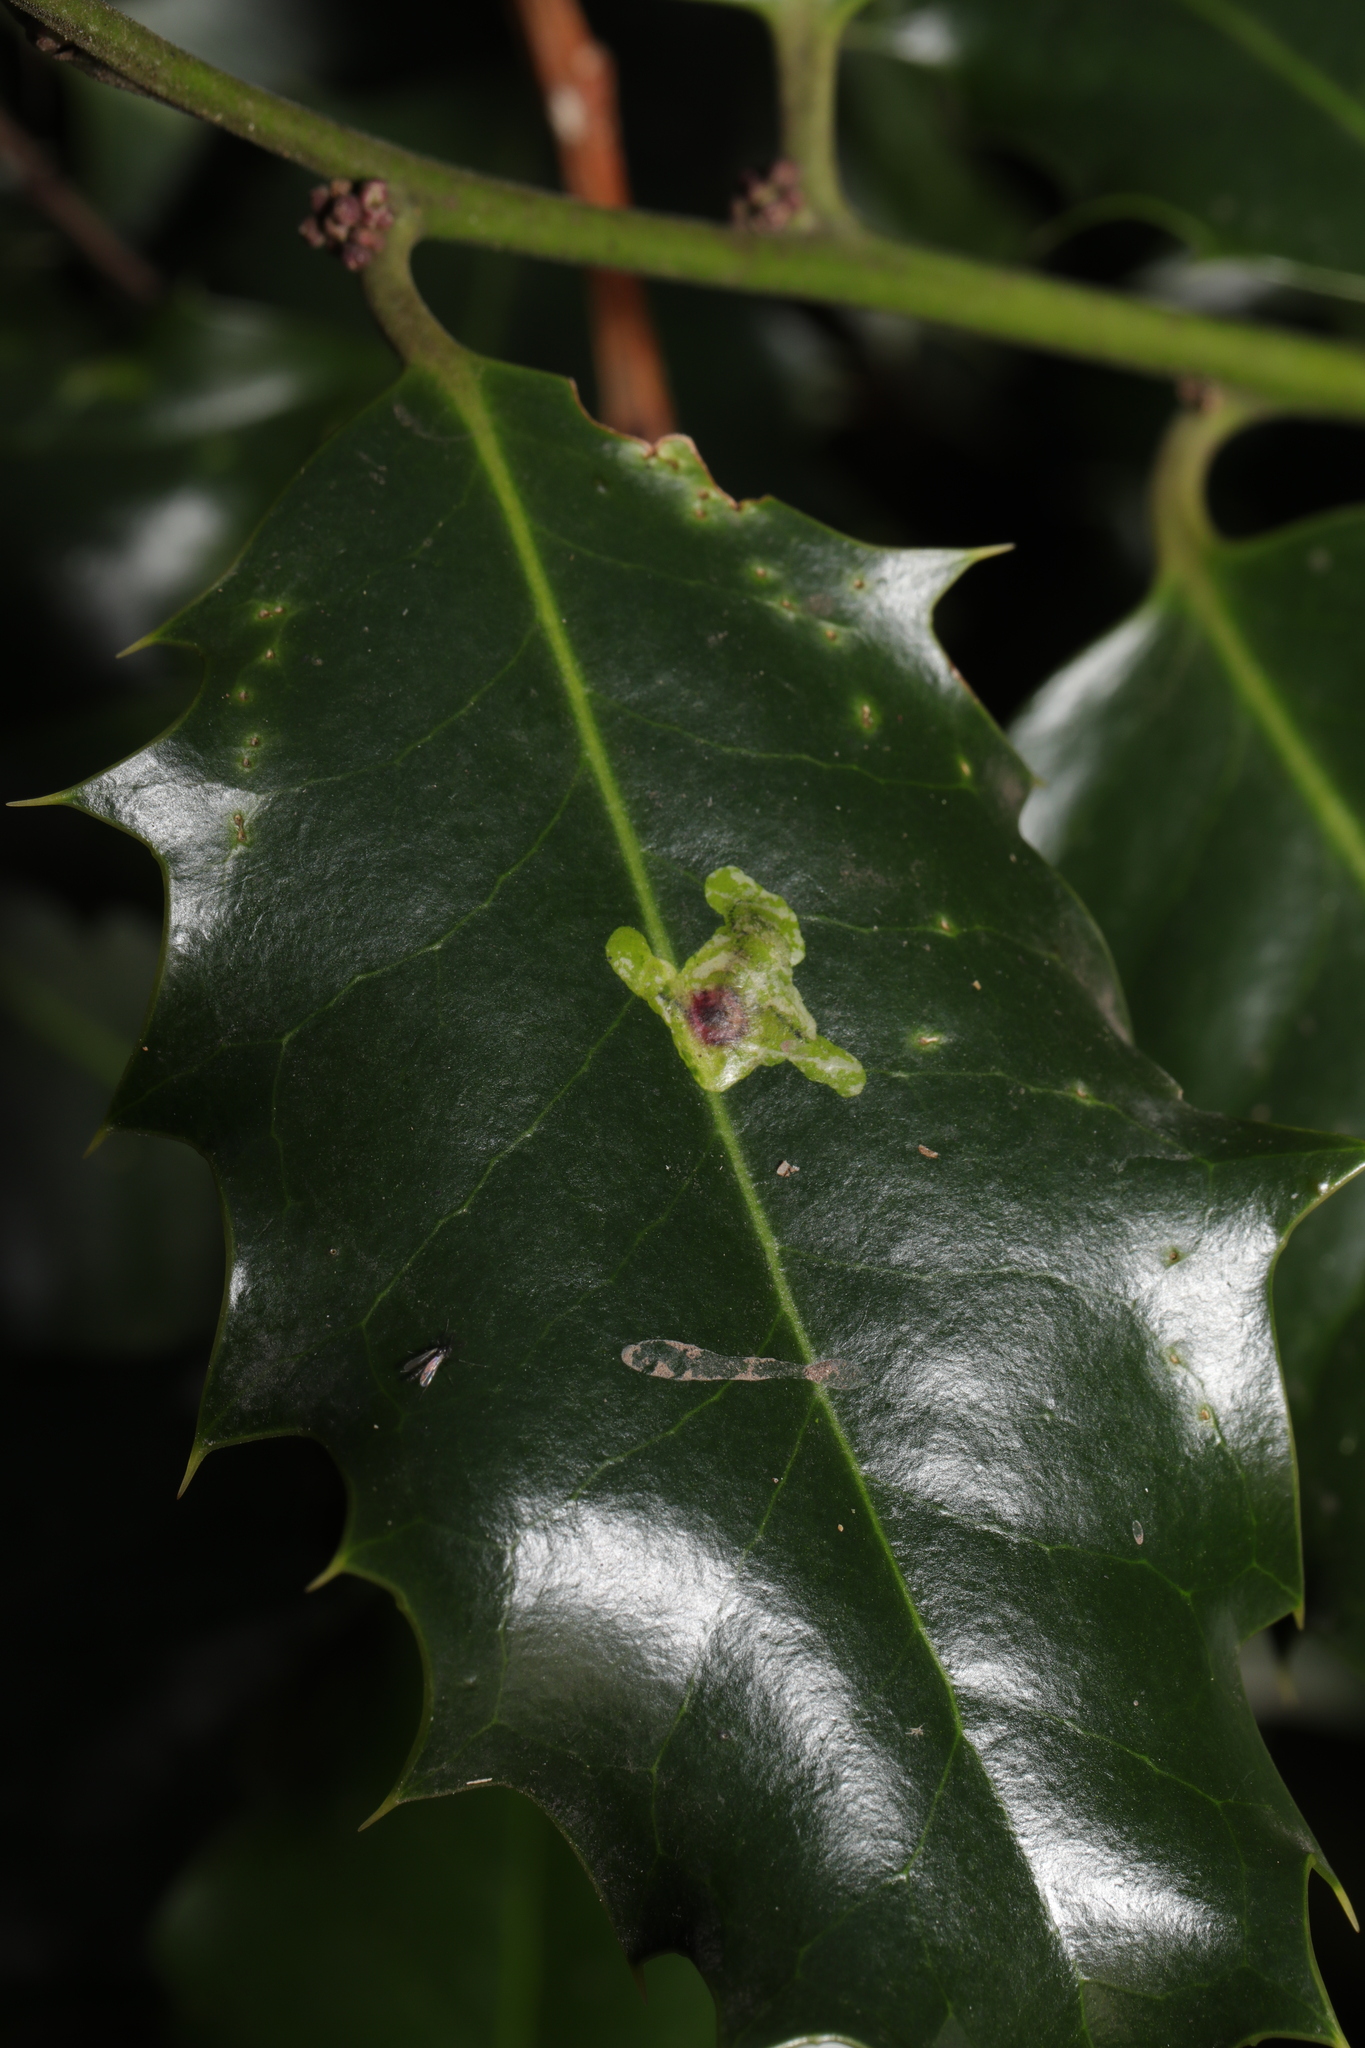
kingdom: Animalia
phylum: Arthropoda
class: Insecta
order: Diptera
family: Agromyzidae
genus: Phytomyza
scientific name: Phytomyza ilicis
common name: Holly leafminer
